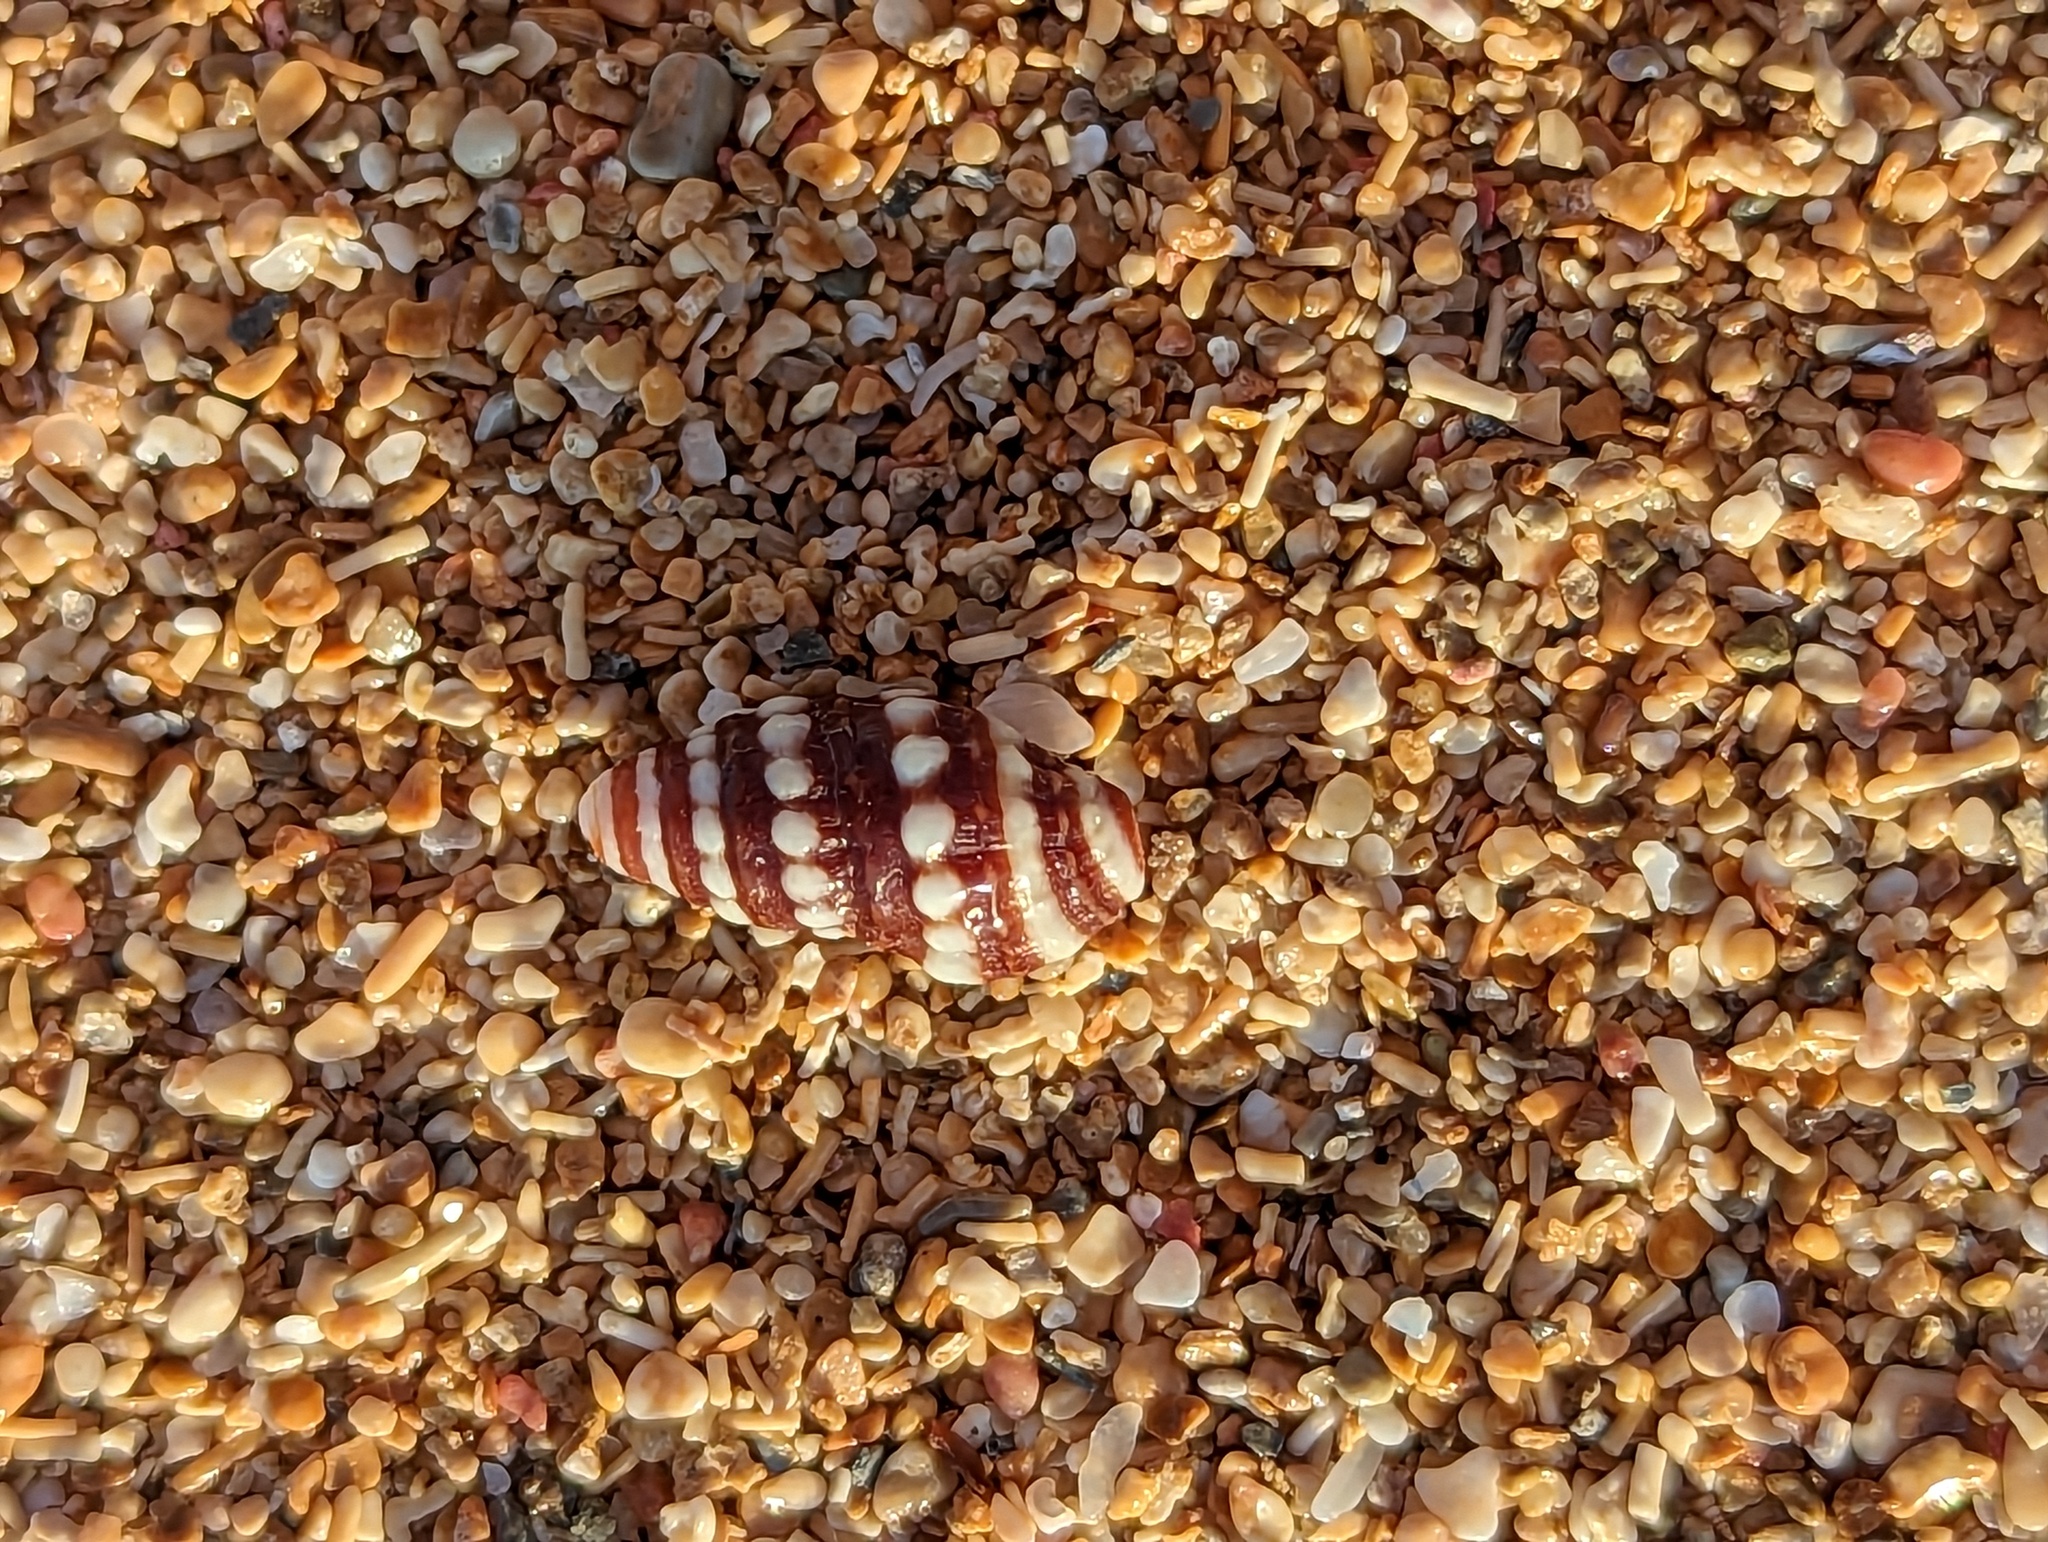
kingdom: Animalia
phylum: Mollusca
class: Gastropoda
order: Neogastropoda
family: Pseudomelatomidae
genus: Pilsbryspira
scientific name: Pilsbryspira albocincta
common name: White-banded turret
